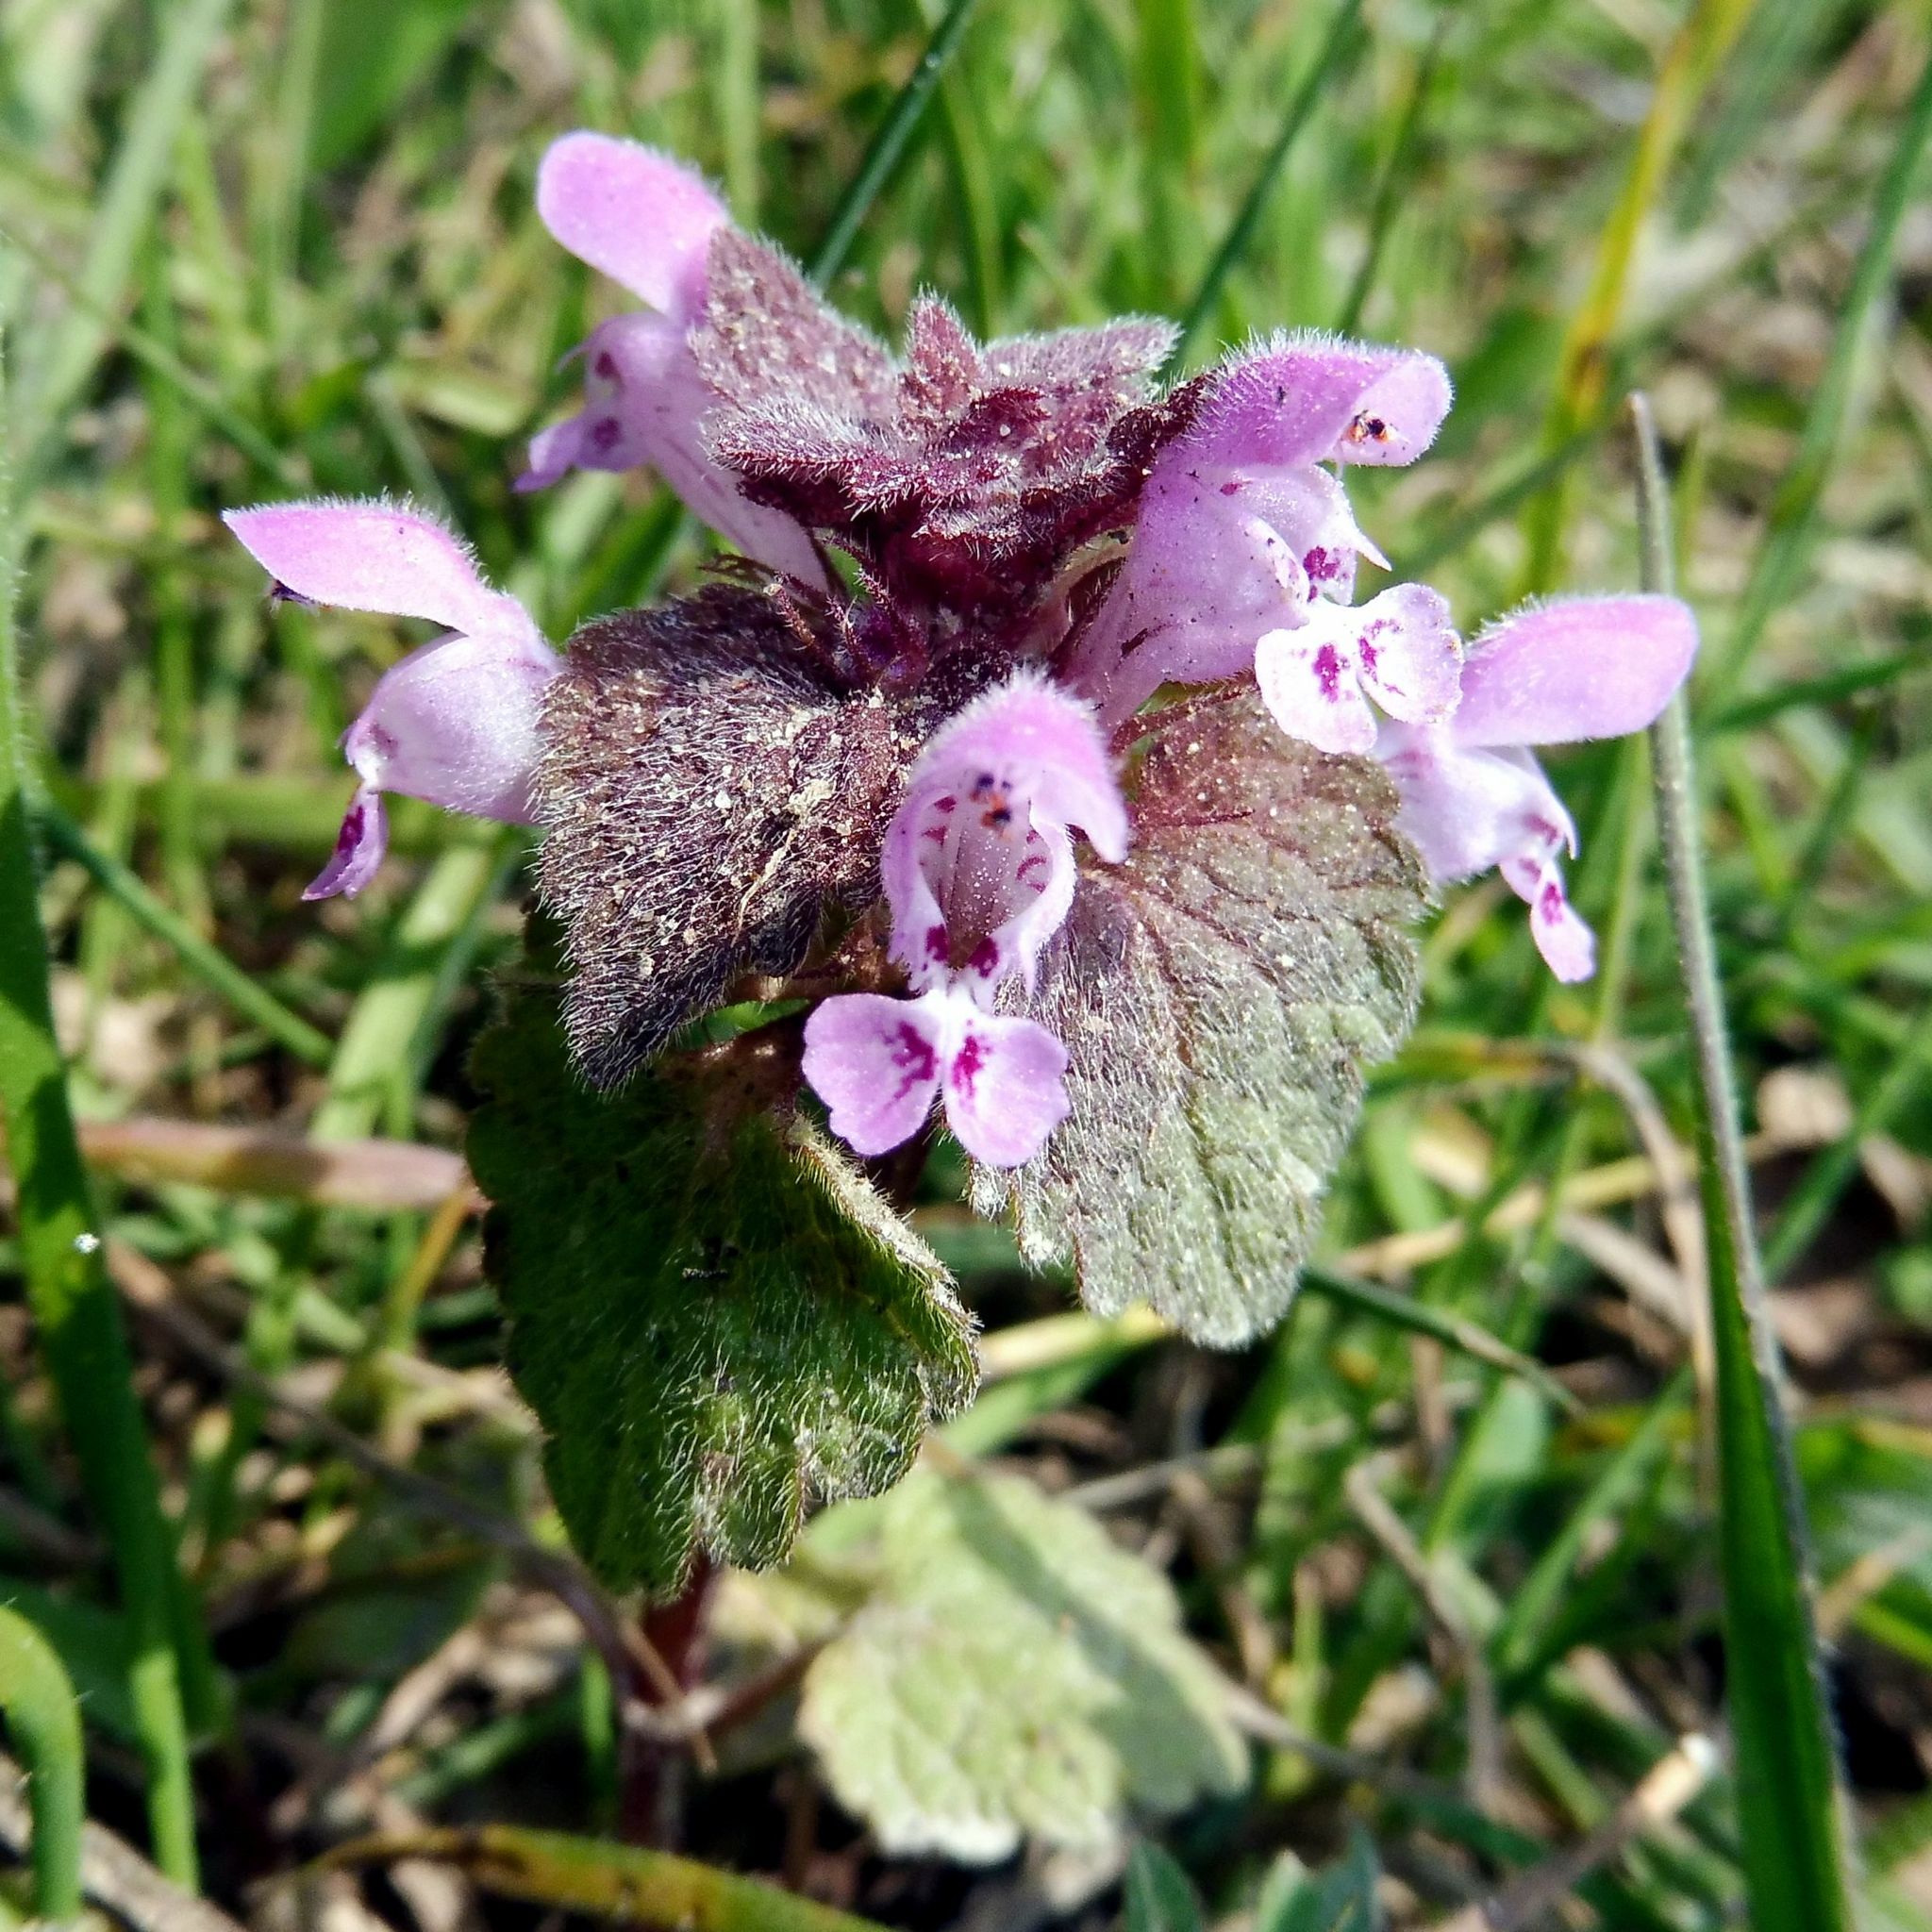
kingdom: Plantae
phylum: Tracheophyta
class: Magnoliopsida
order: Lamiales
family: Lamiaceae
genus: Lamium
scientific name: Lamium purpureum
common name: Red dead-nettle
